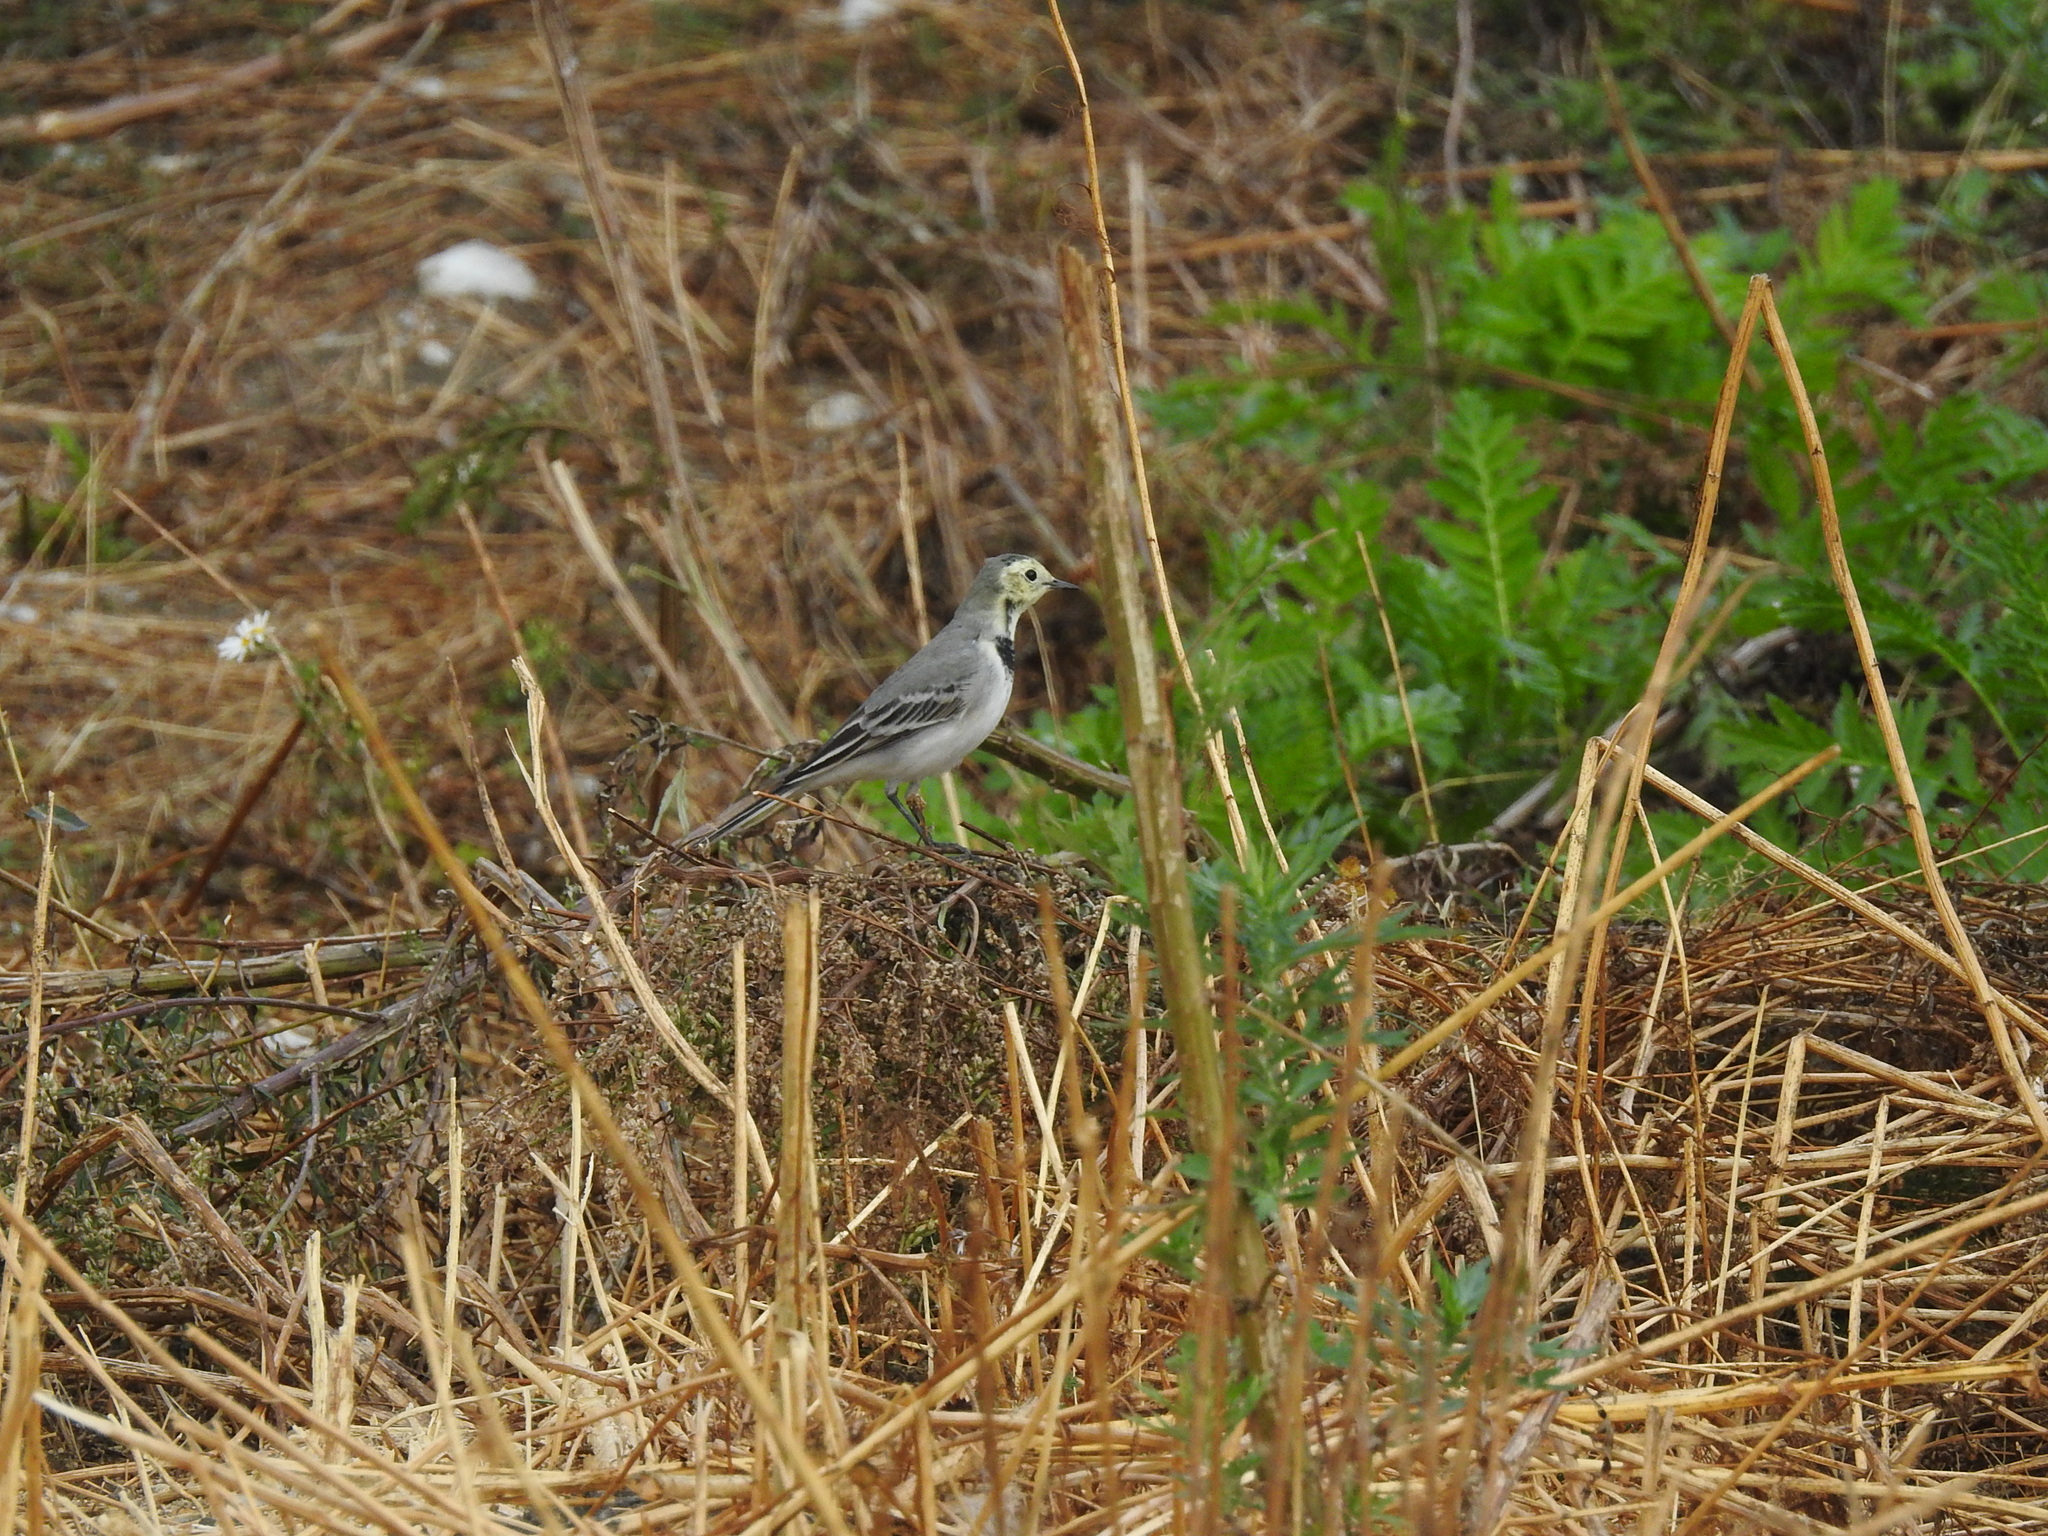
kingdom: Animalia
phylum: Chordata
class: Aves
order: Passeriformes
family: Motacillidae
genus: Motacilla
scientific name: Motacilla alba
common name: White wagtail
